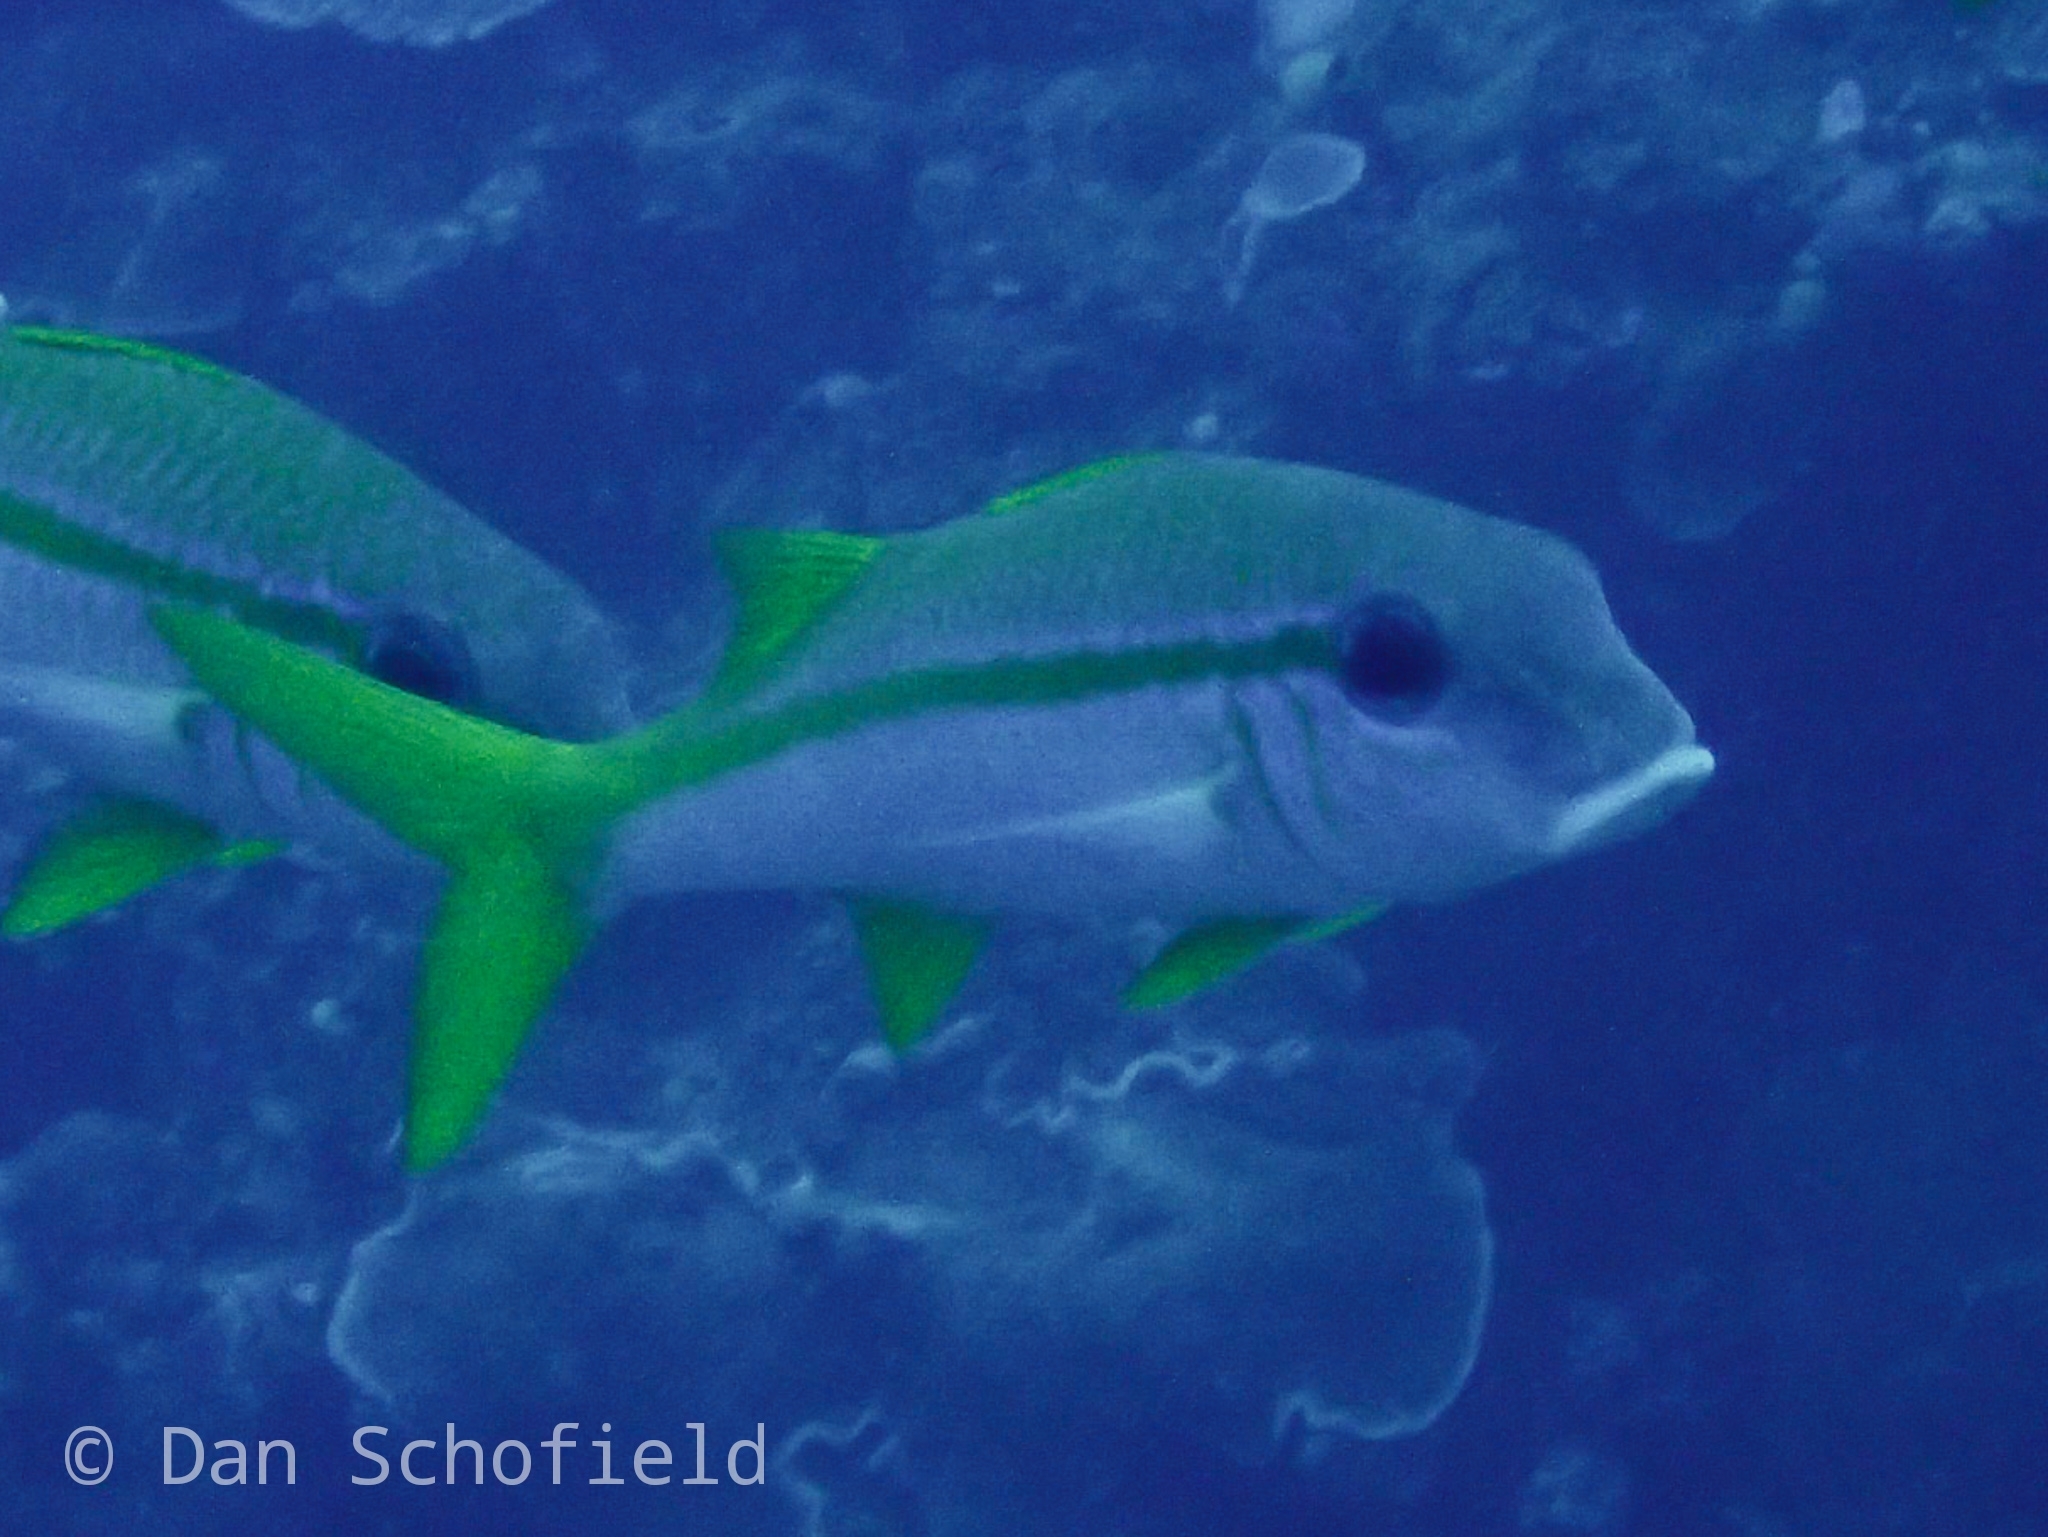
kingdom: Animalia
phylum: Chordata
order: Perciformes
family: Mullidae
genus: Mulloidichthys
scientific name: Mulloidichthys vanicolensis
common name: Yellowfin goatfish
